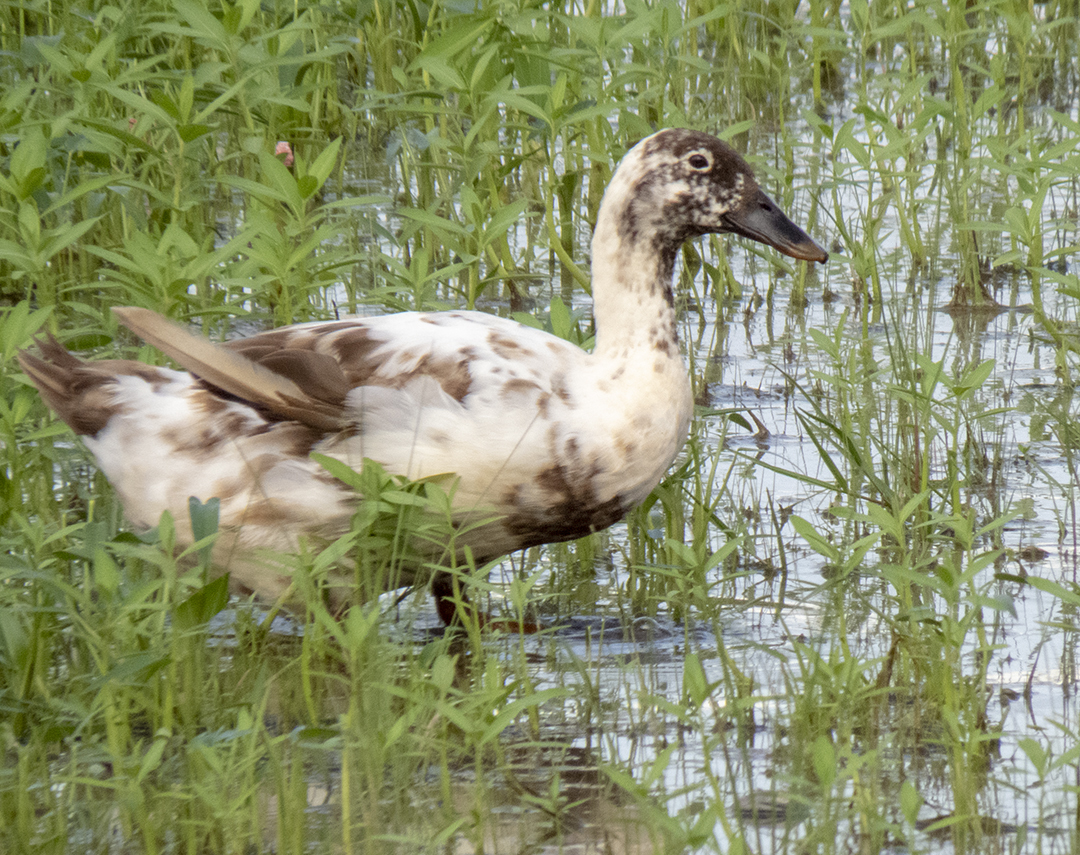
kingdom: Animalia
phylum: Chordata
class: Aves
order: Anseriformes
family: Anatidae
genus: Anas
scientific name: Anas platyrhynchos
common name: Mallard
